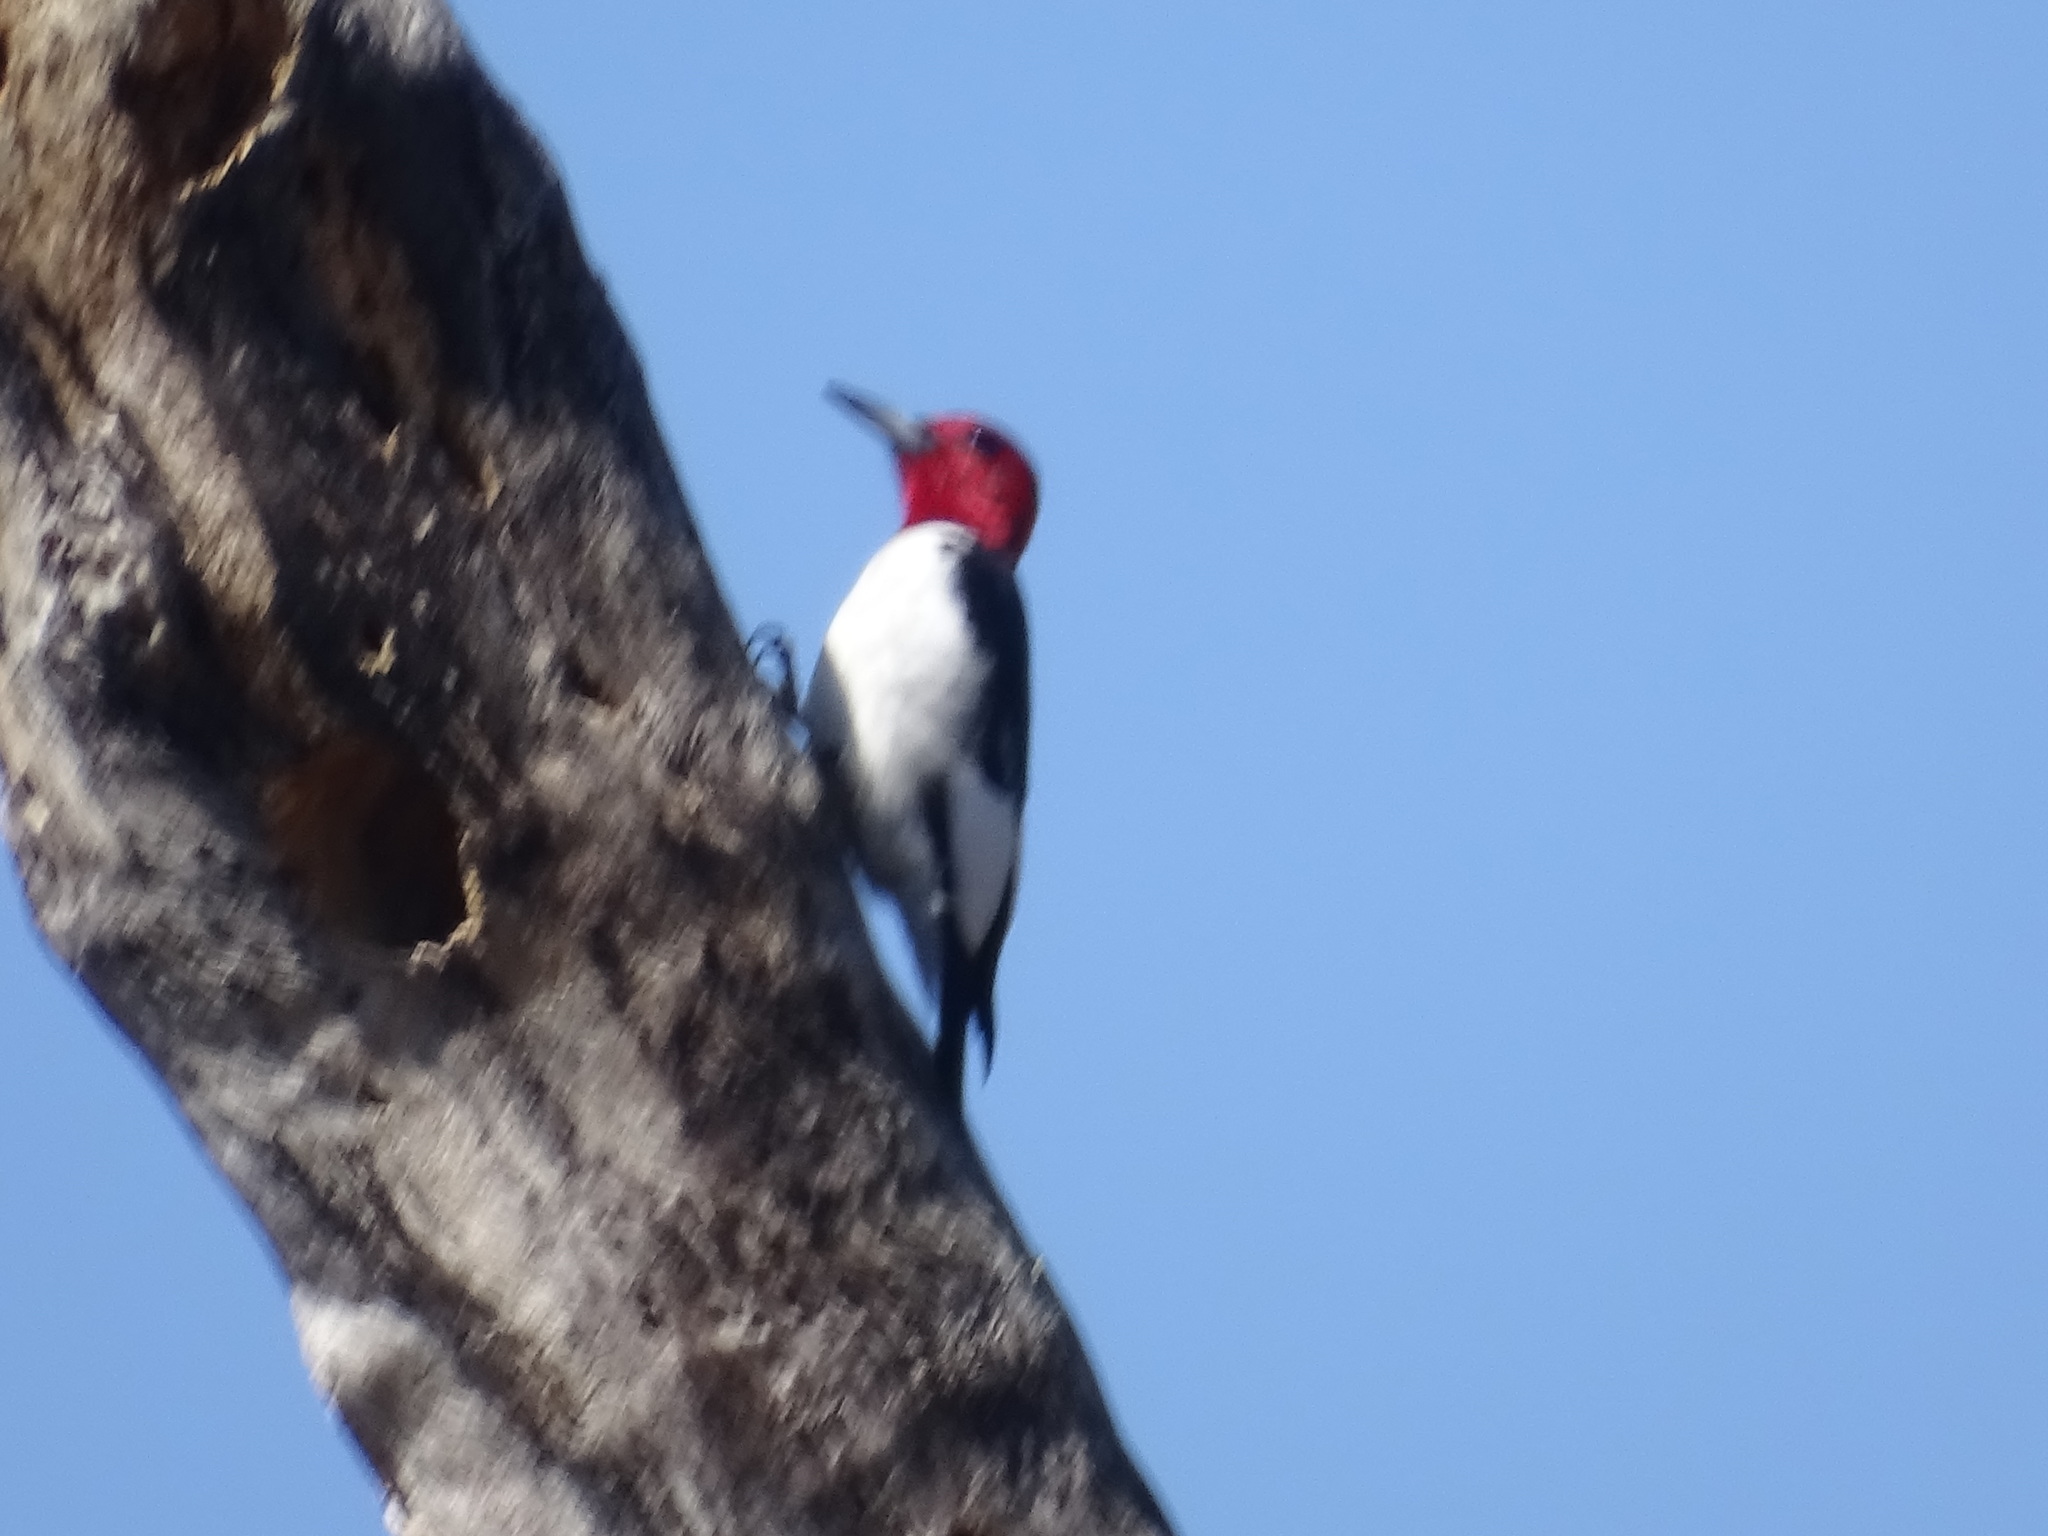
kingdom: Animalia
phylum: Chordata
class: Aves
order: Piciformes
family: Picidae
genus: Melanerpes
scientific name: Melanerpes erythrocephalus
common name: Red-headed woodpecker
